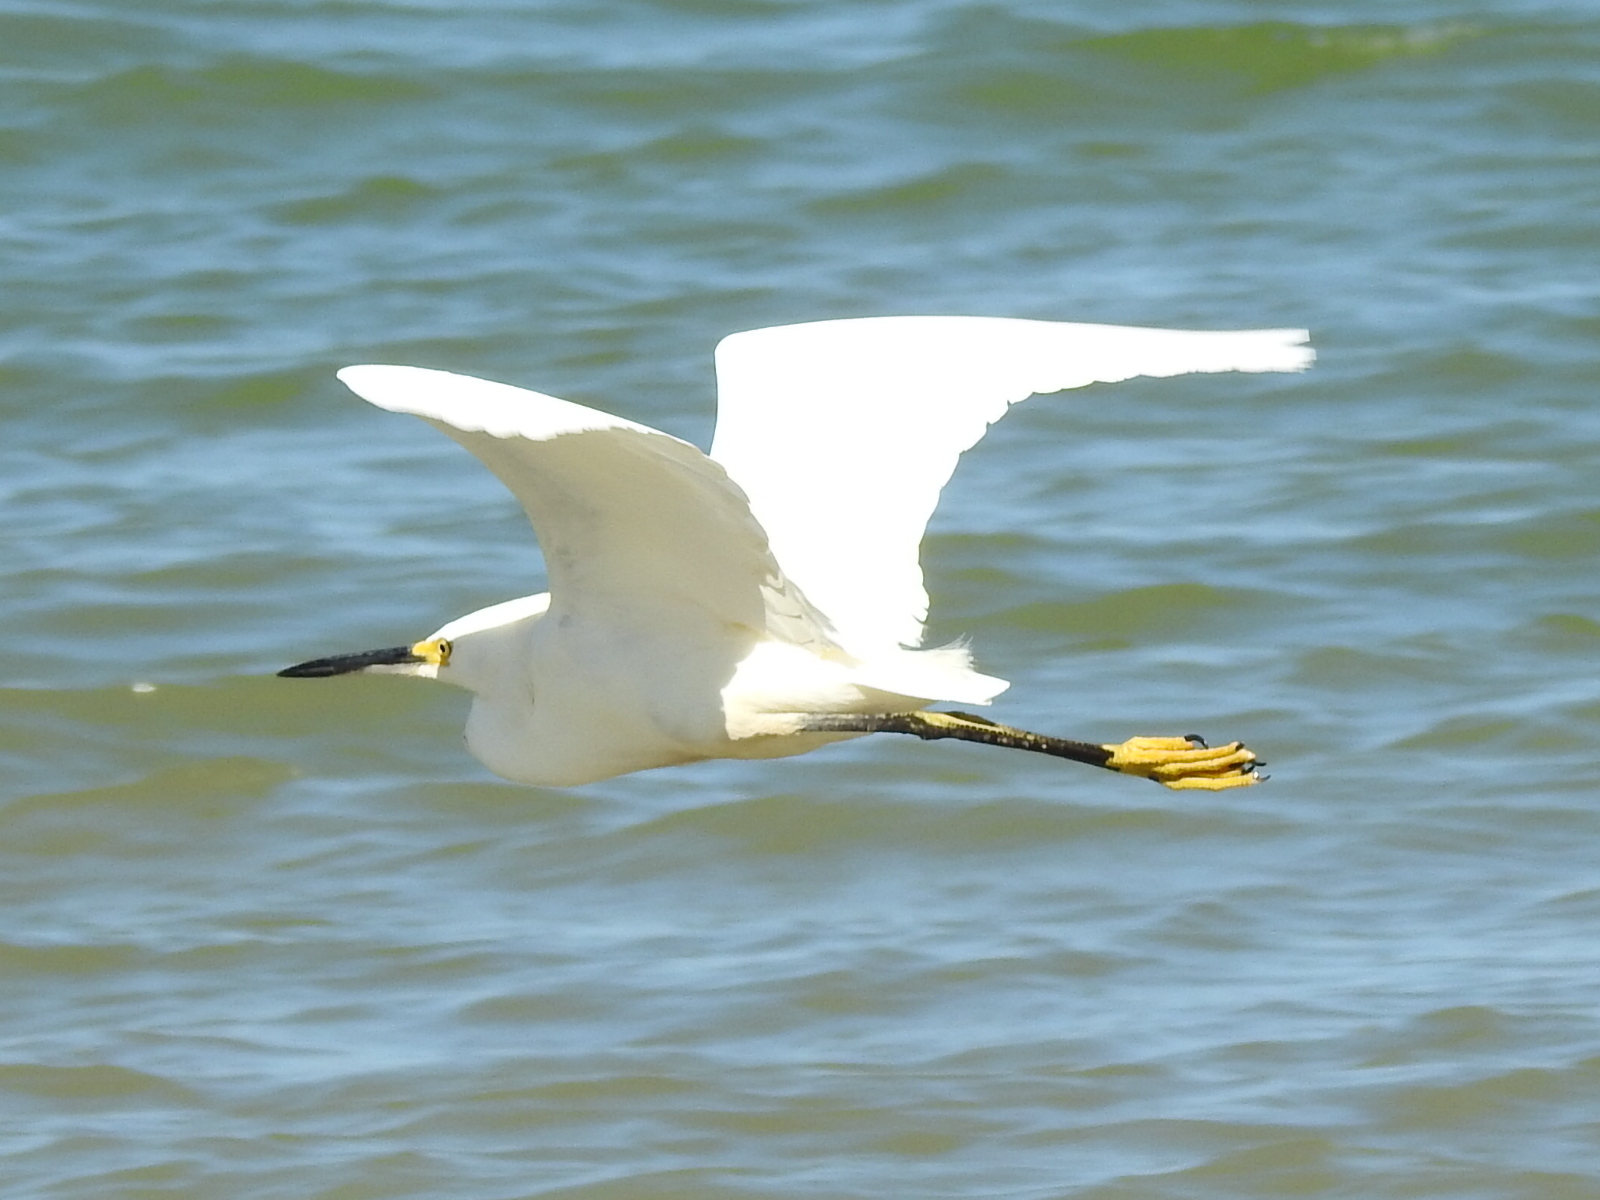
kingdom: Animalia
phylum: Chordata
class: Aves
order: Pelecaniformes
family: Ardeidae
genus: Egretta
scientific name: Egretta thula
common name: Snowy egret
